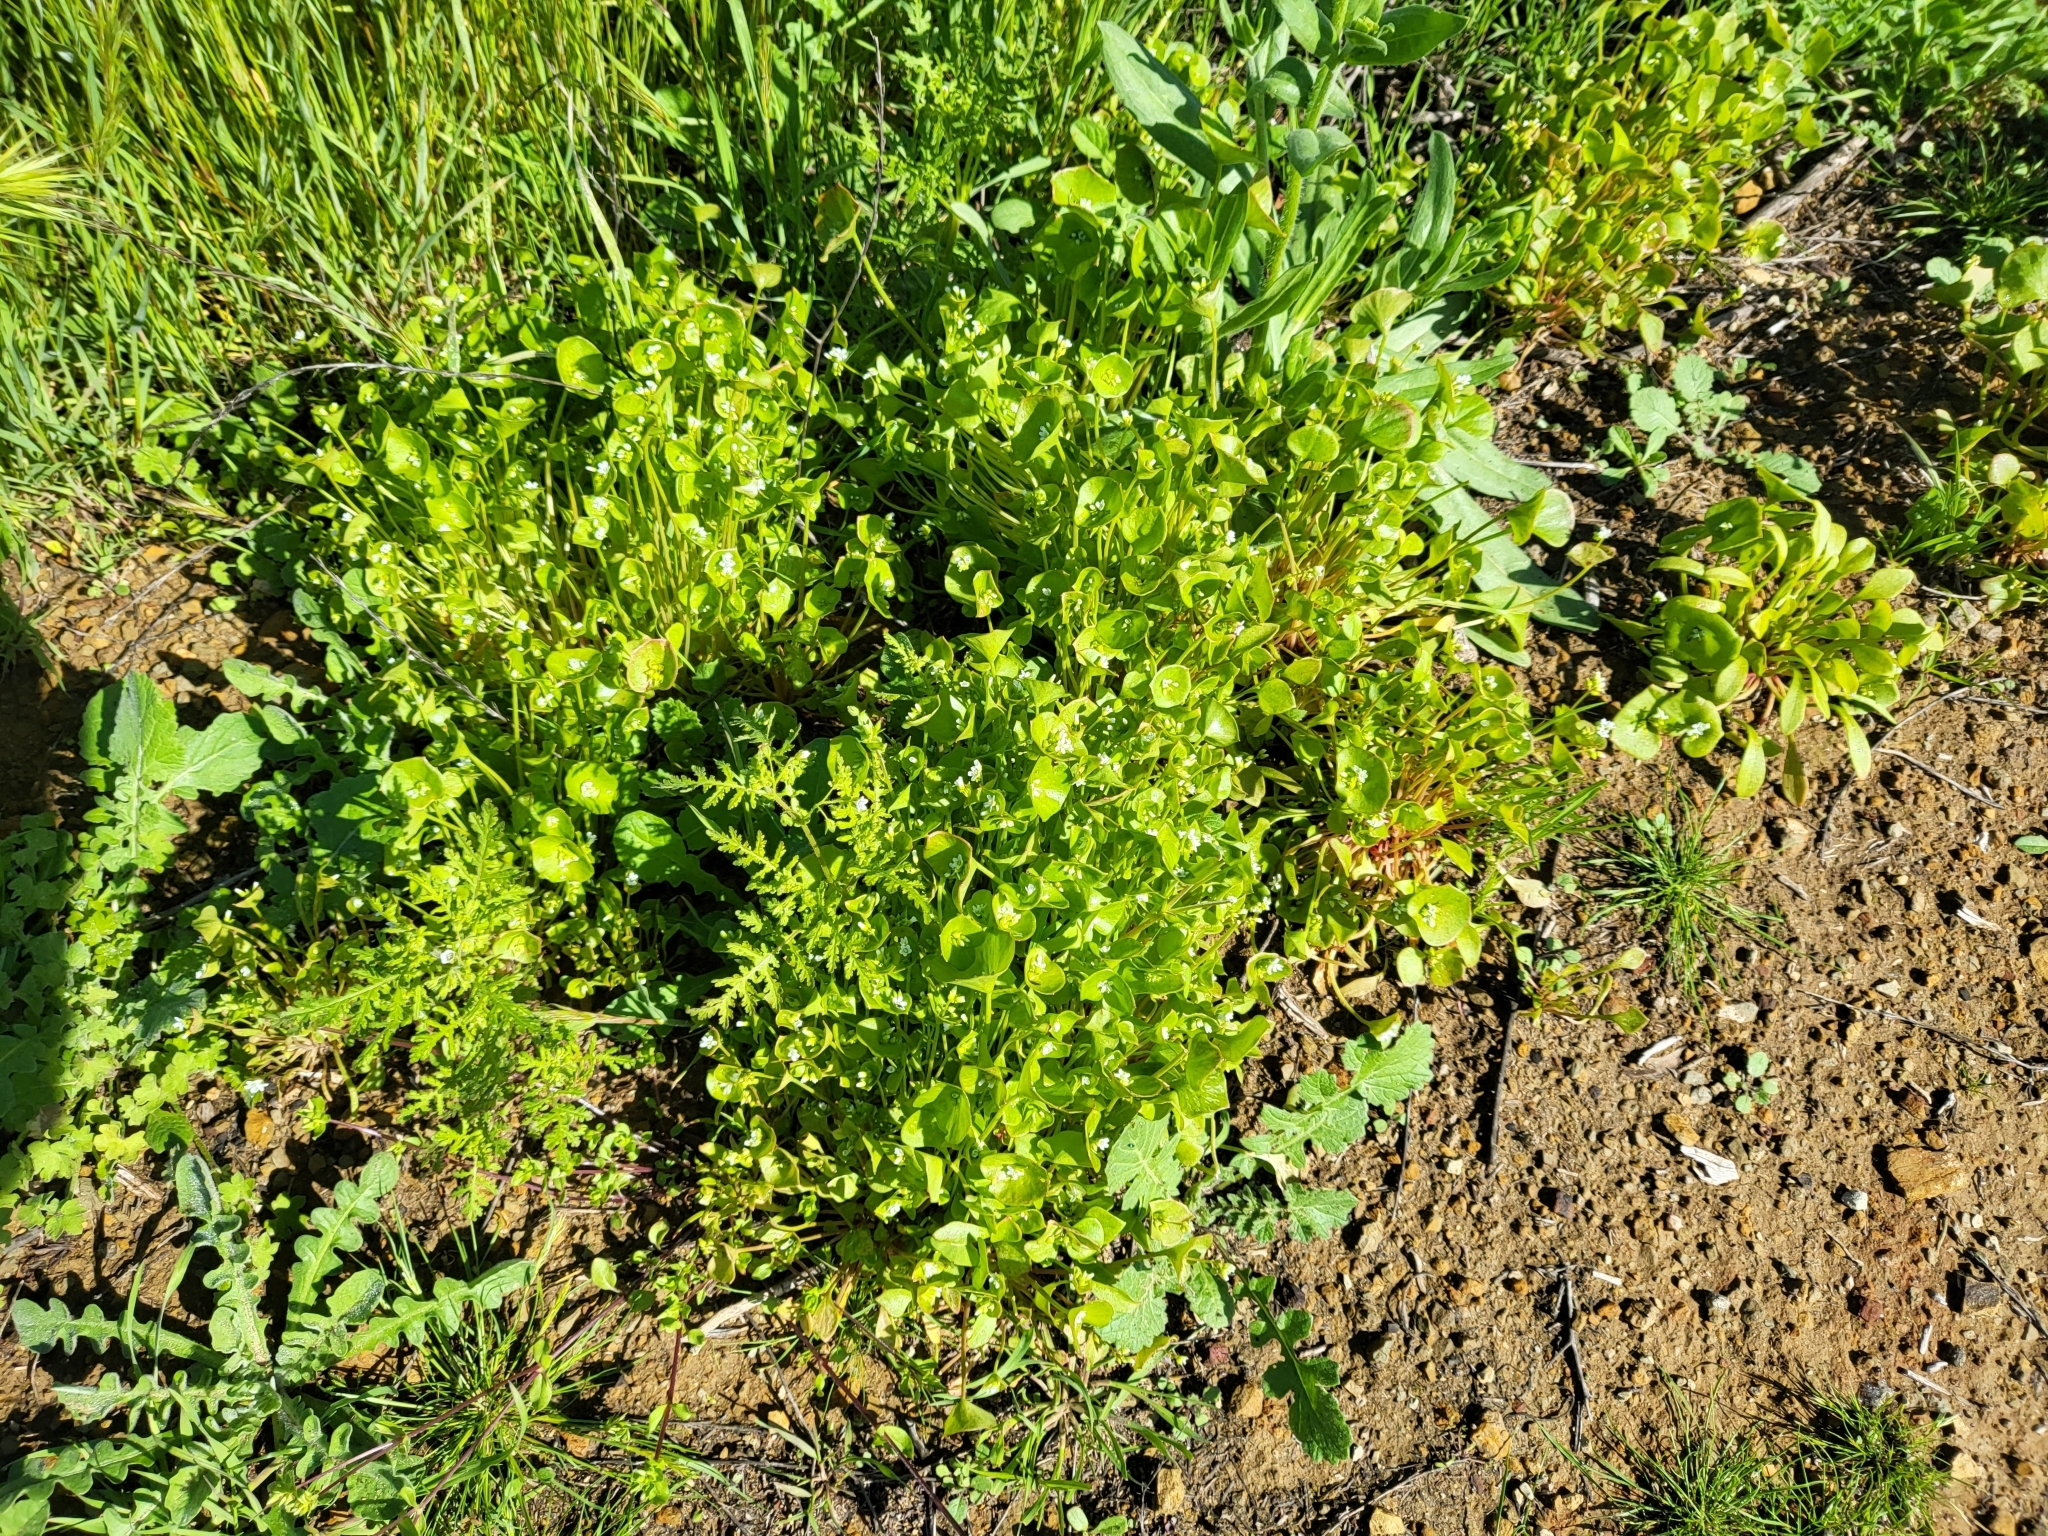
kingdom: Plantae
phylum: Tracheophyta
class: Magnoliopsida
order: Caryophyllales
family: Montiaceae
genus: Claytonia
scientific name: Claytonia perfoliata
